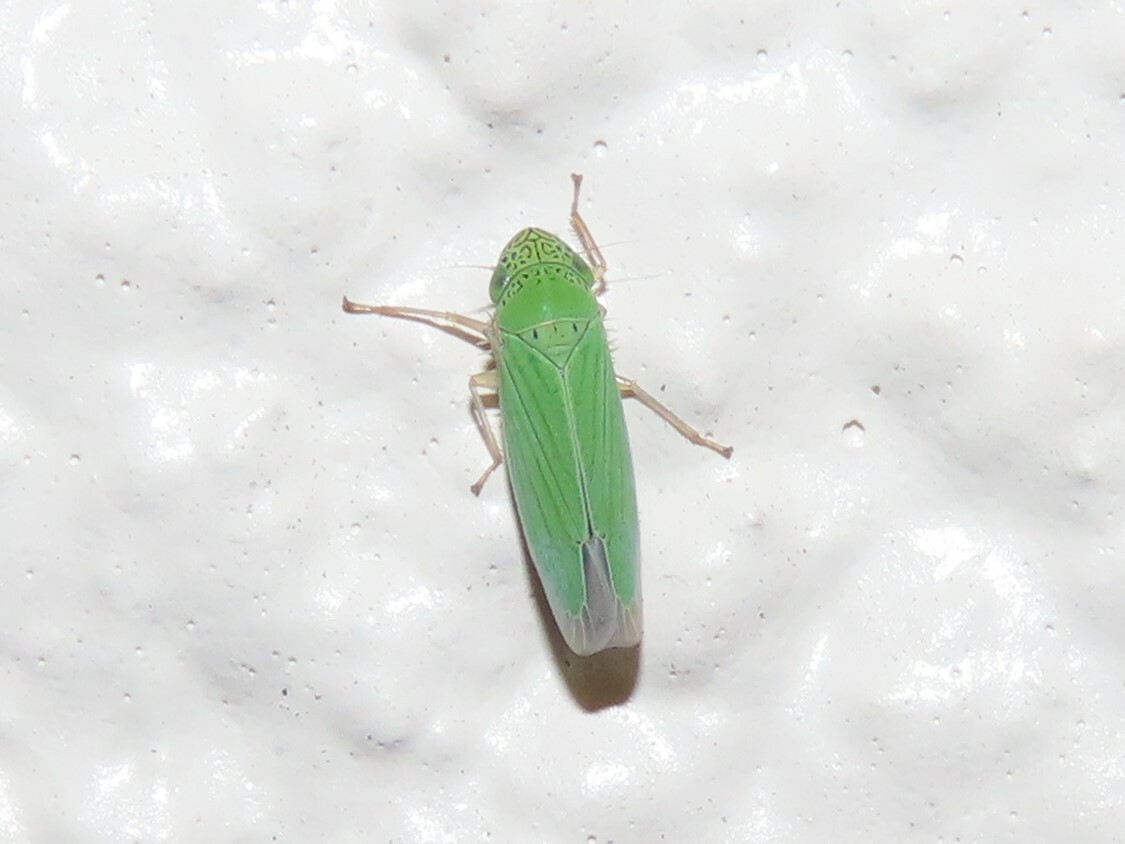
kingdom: Animalia
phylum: Arthropoda
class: Insecta
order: Hemiptera
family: Cicadellidae
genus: Hortensia
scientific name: Hortensia similis
